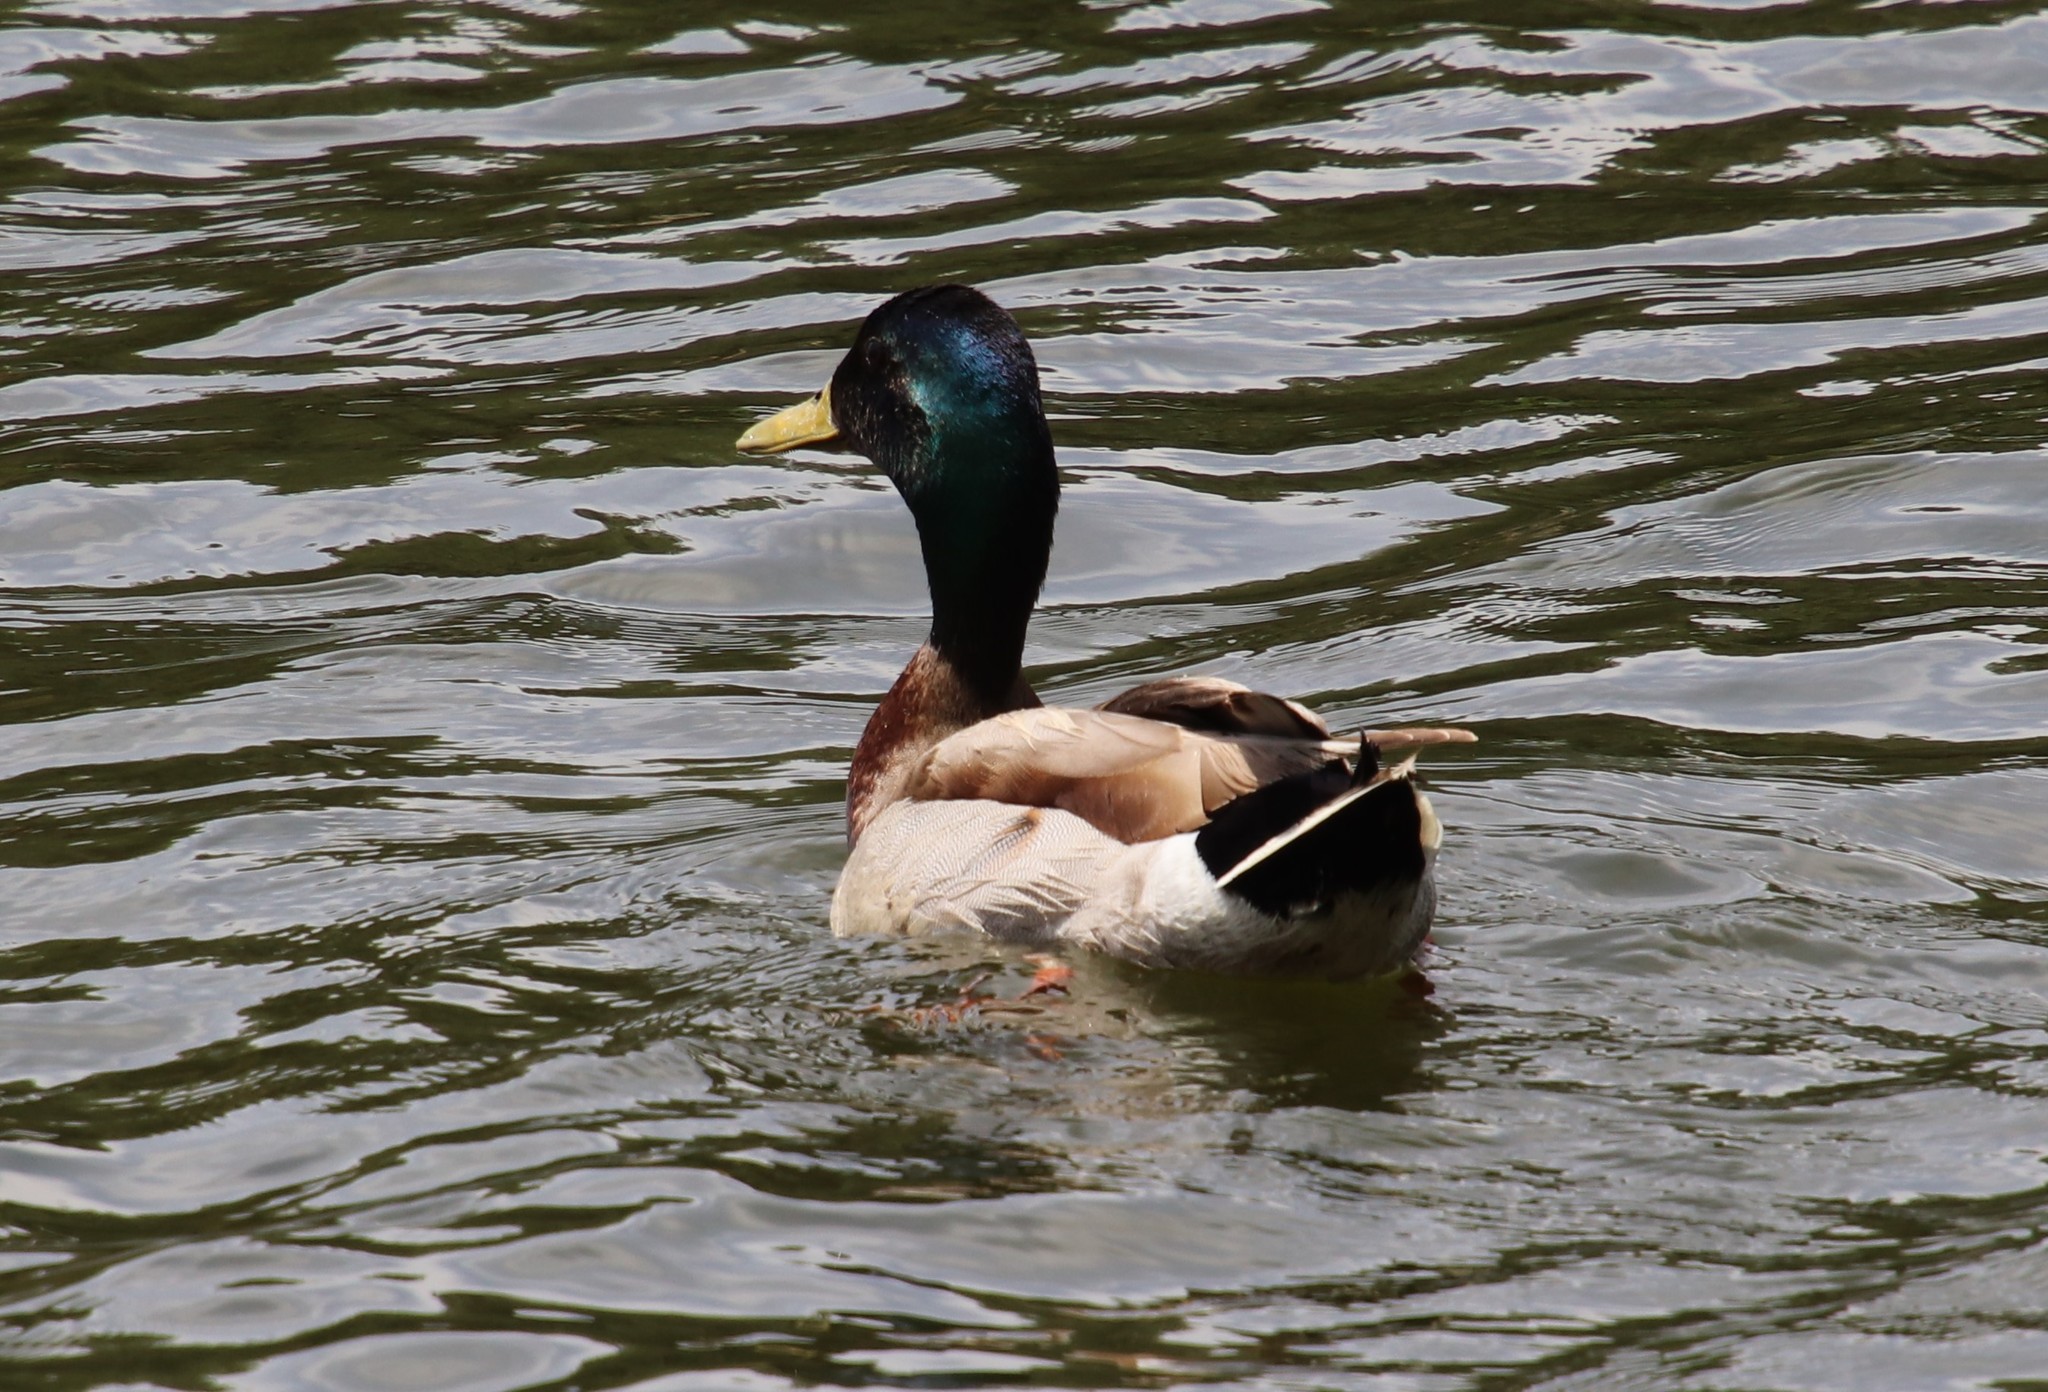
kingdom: Animalia
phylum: Chordata
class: Aves
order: Anseriformes
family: Anatidae
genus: Anas
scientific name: Anas platyrhynchos
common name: Mallard
